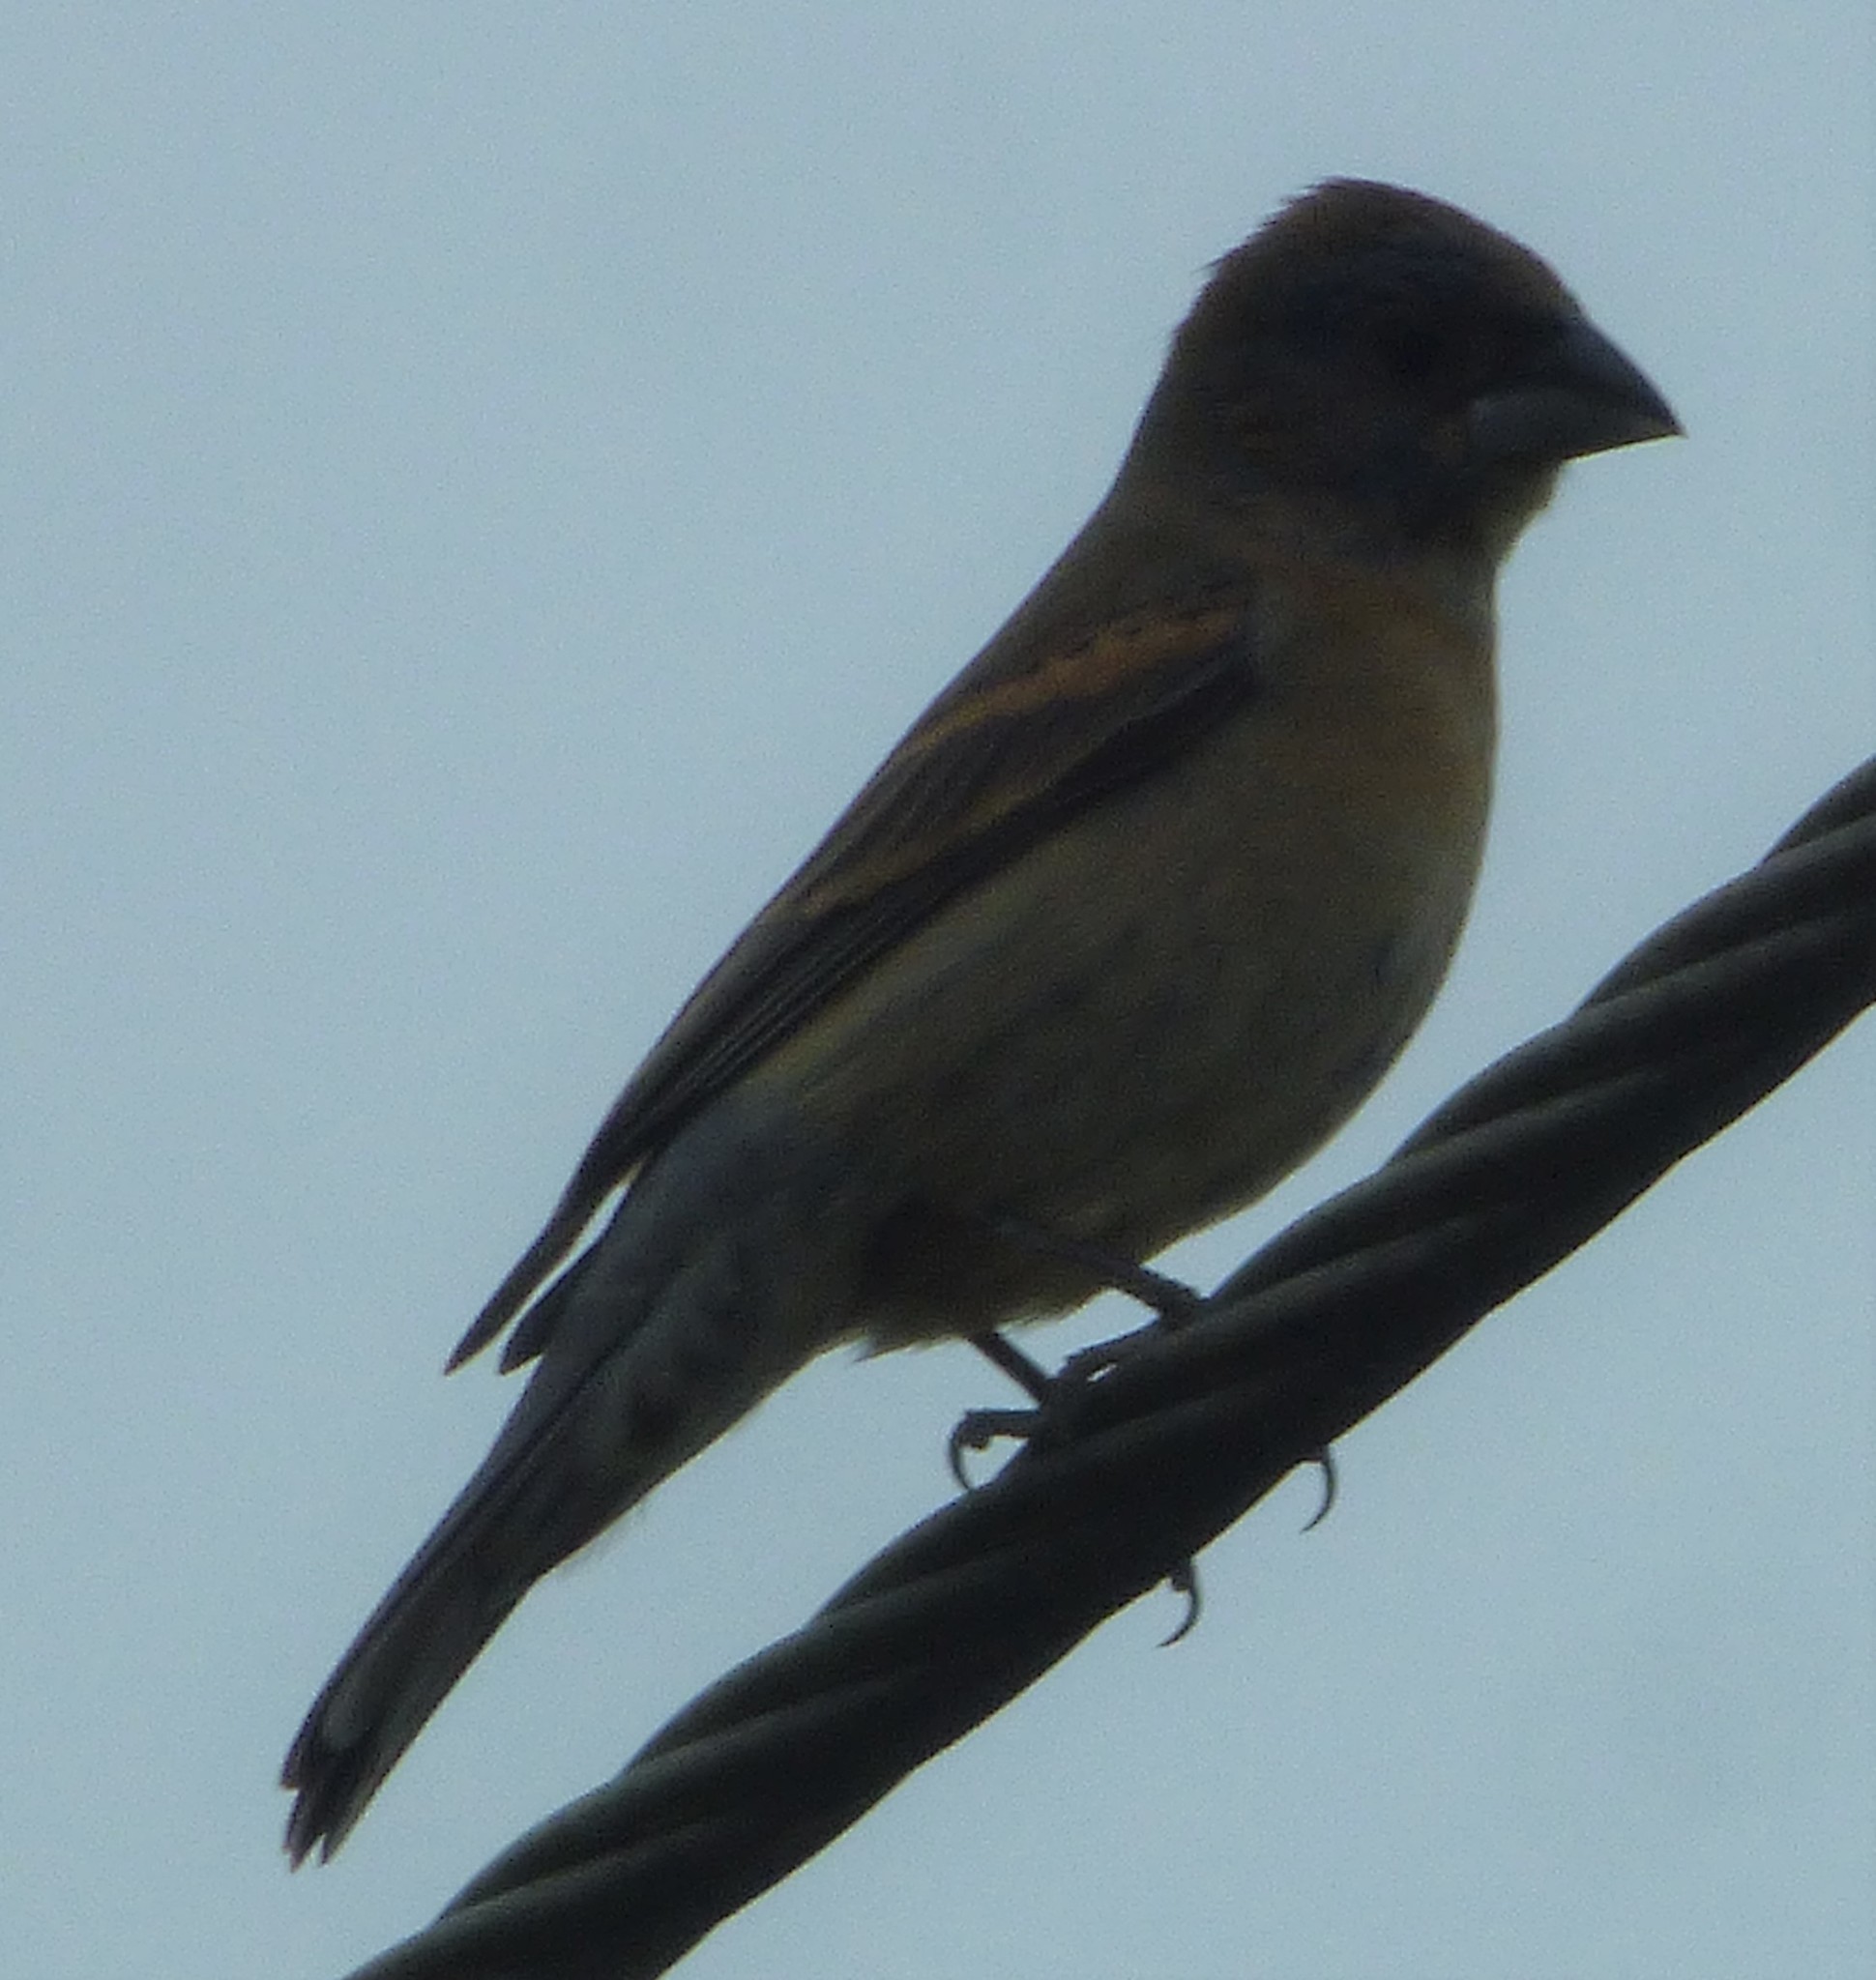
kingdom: Animalia
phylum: Chordata
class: Aves
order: Passeriformes
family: Cardinalidae
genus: Passerina
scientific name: Passerina caerulea
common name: Blue grosbeak
